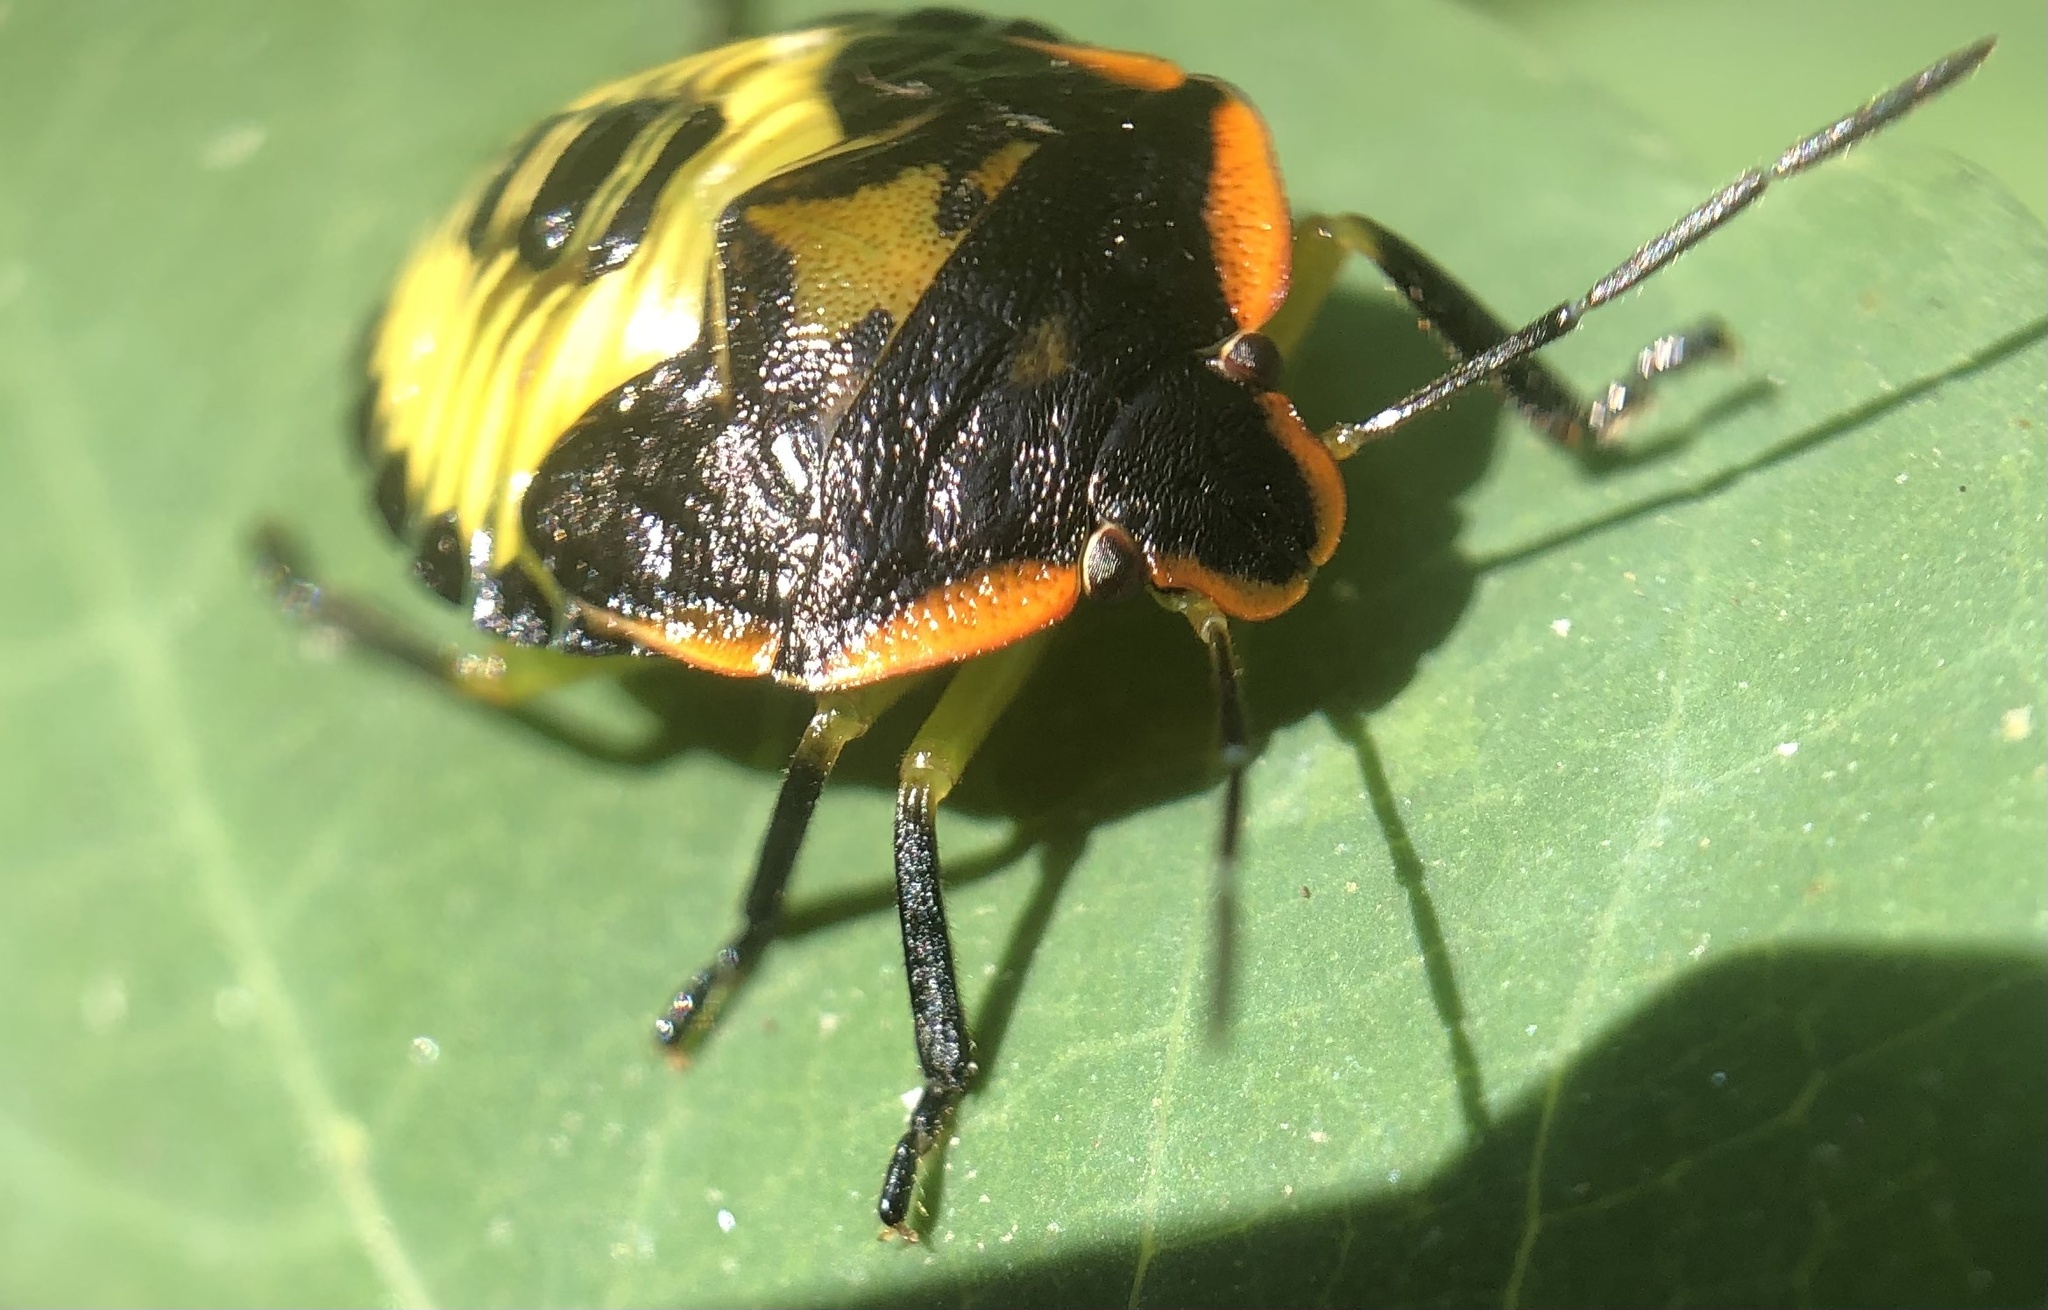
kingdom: Animalia
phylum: Arthropoda
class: Insecta
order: Hemiptera
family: Pentatomidae
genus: Chinavia
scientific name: Chinavia hilaris
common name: Green stink bug
